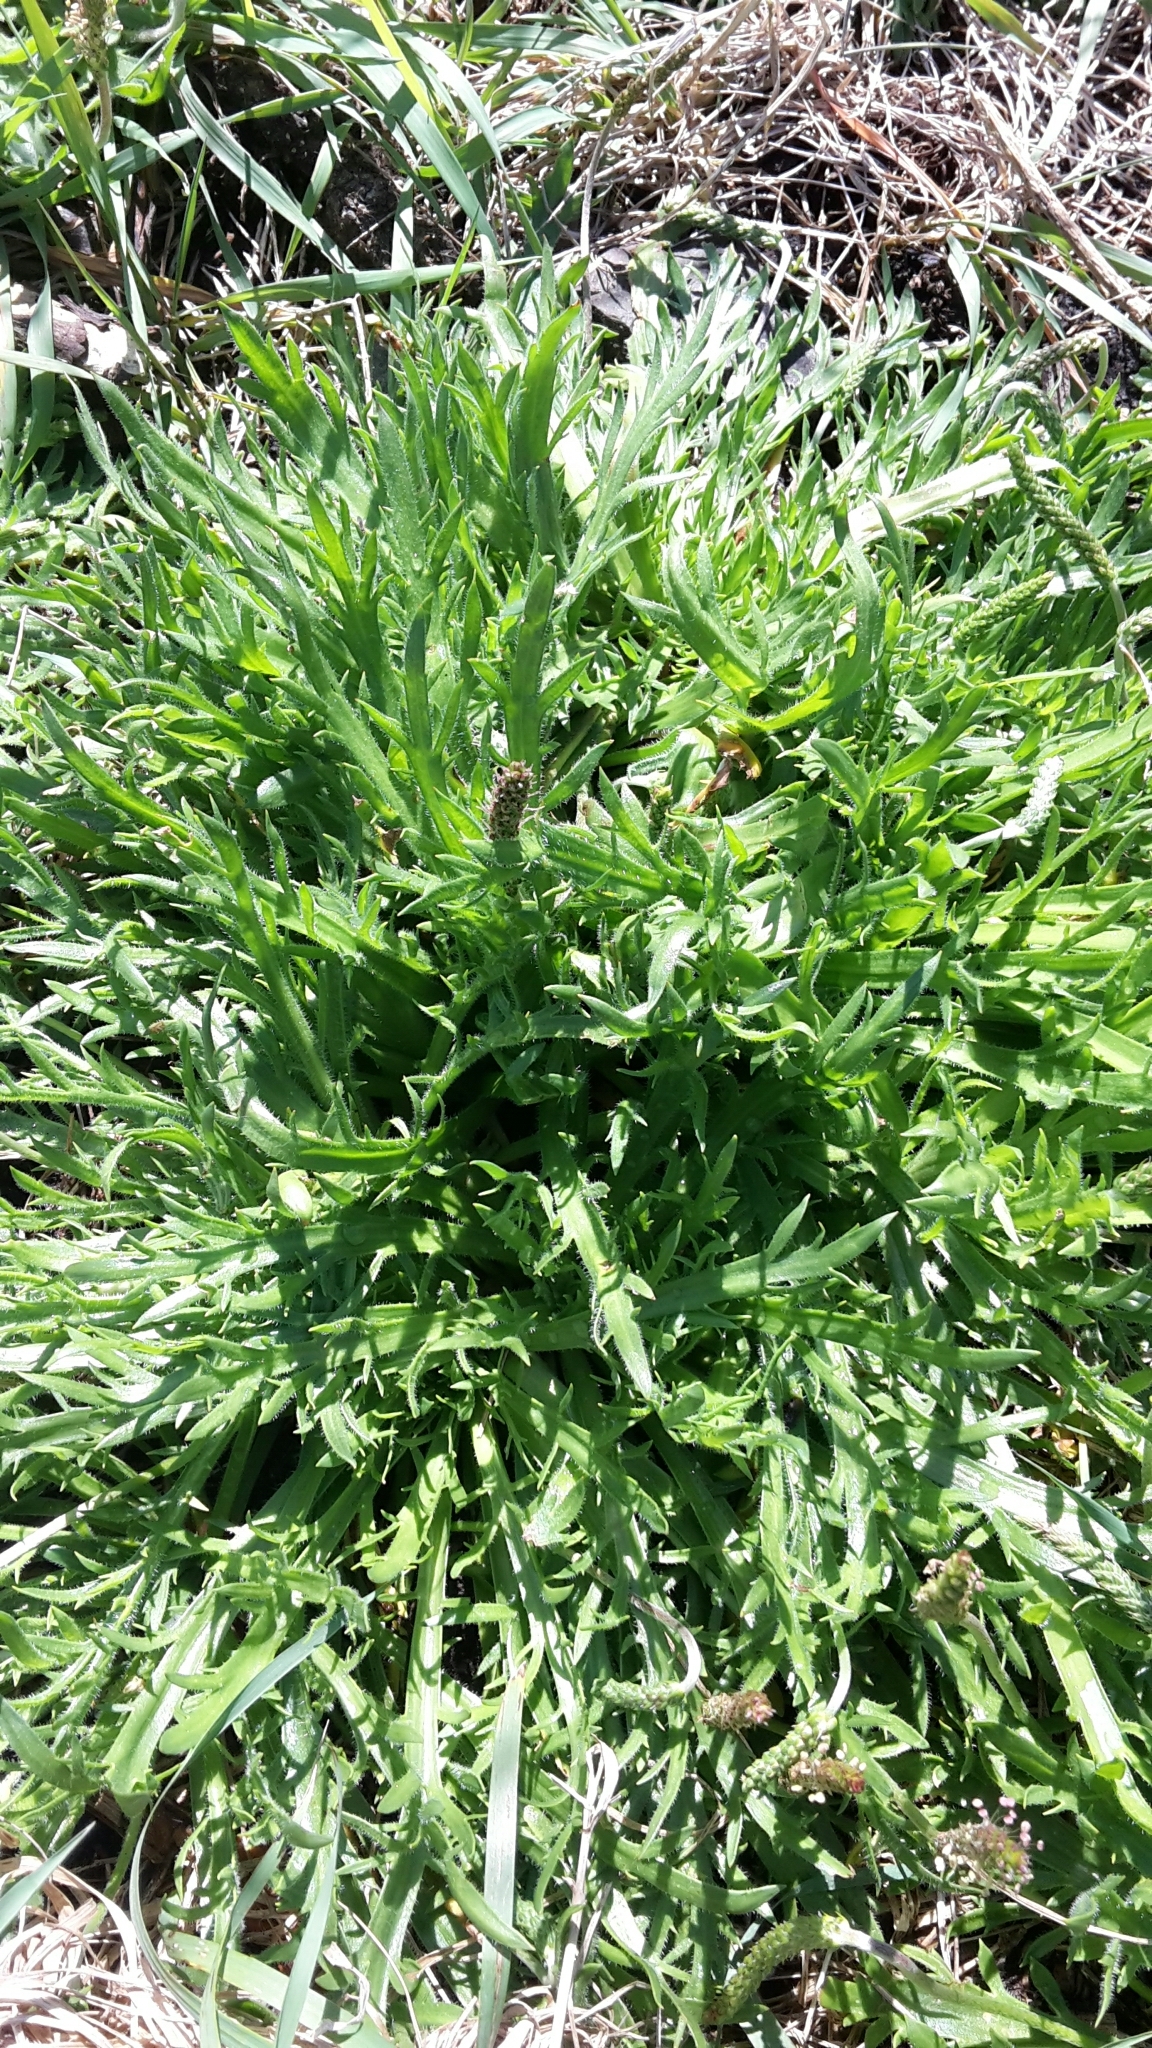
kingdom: Plantae
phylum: Tracheophyta
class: Magnoliopsida
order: Lamiales
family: Plantaginaceae
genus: Plantago
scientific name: Plantago coronopus
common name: Buck's-horn plantain
